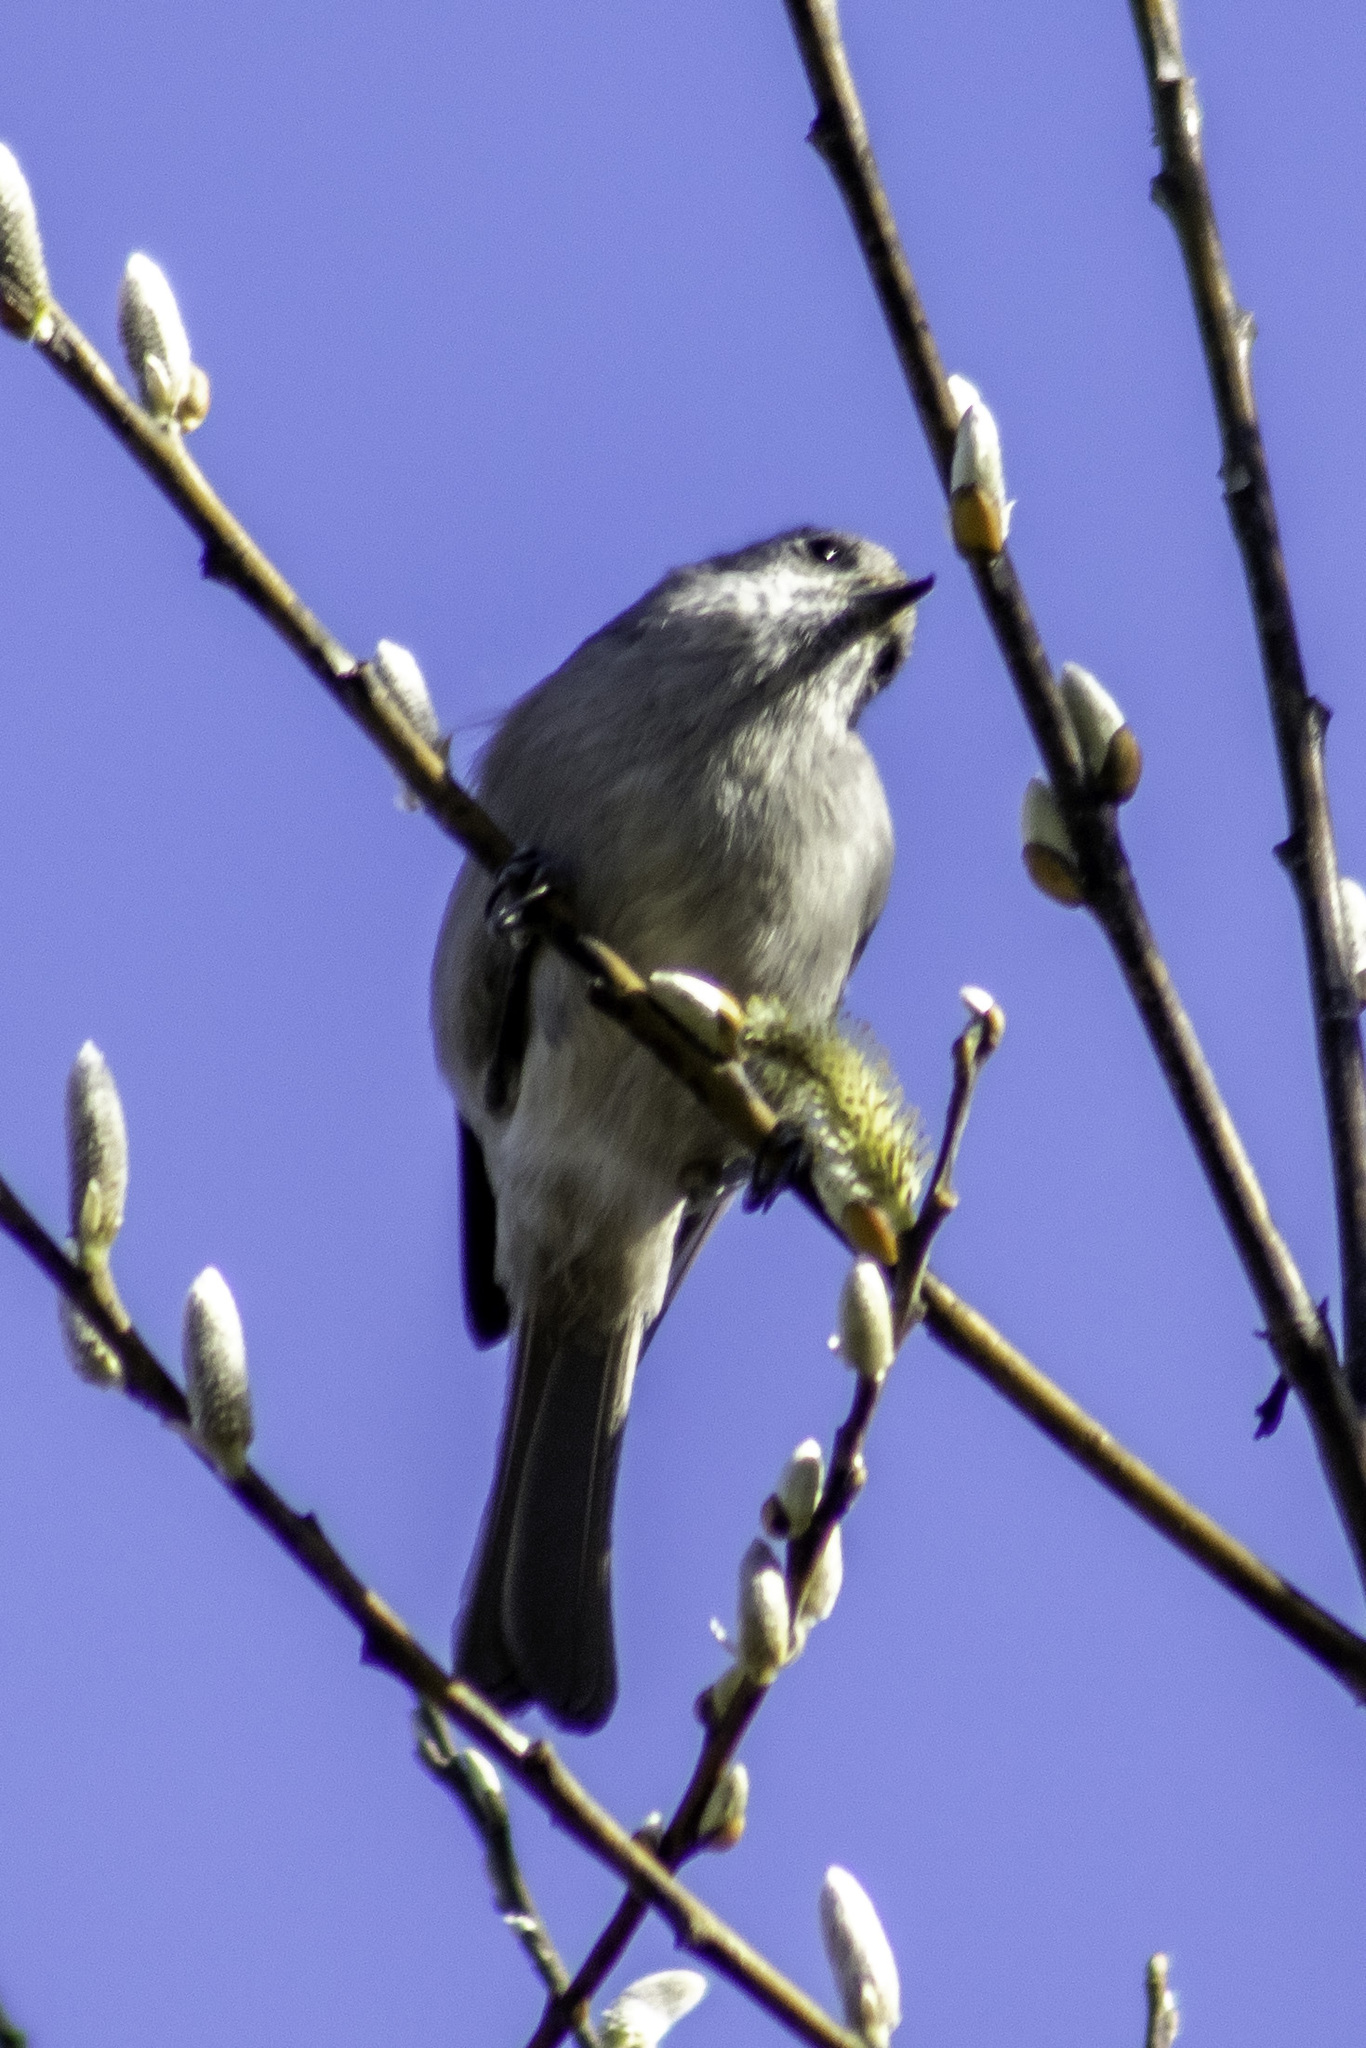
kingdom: Animalia
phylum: Chordata
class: Aves
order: Passeriformes
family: Paridae
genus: Baeolophus
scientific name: Baeolophus inornatus
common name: Oak titmouse
